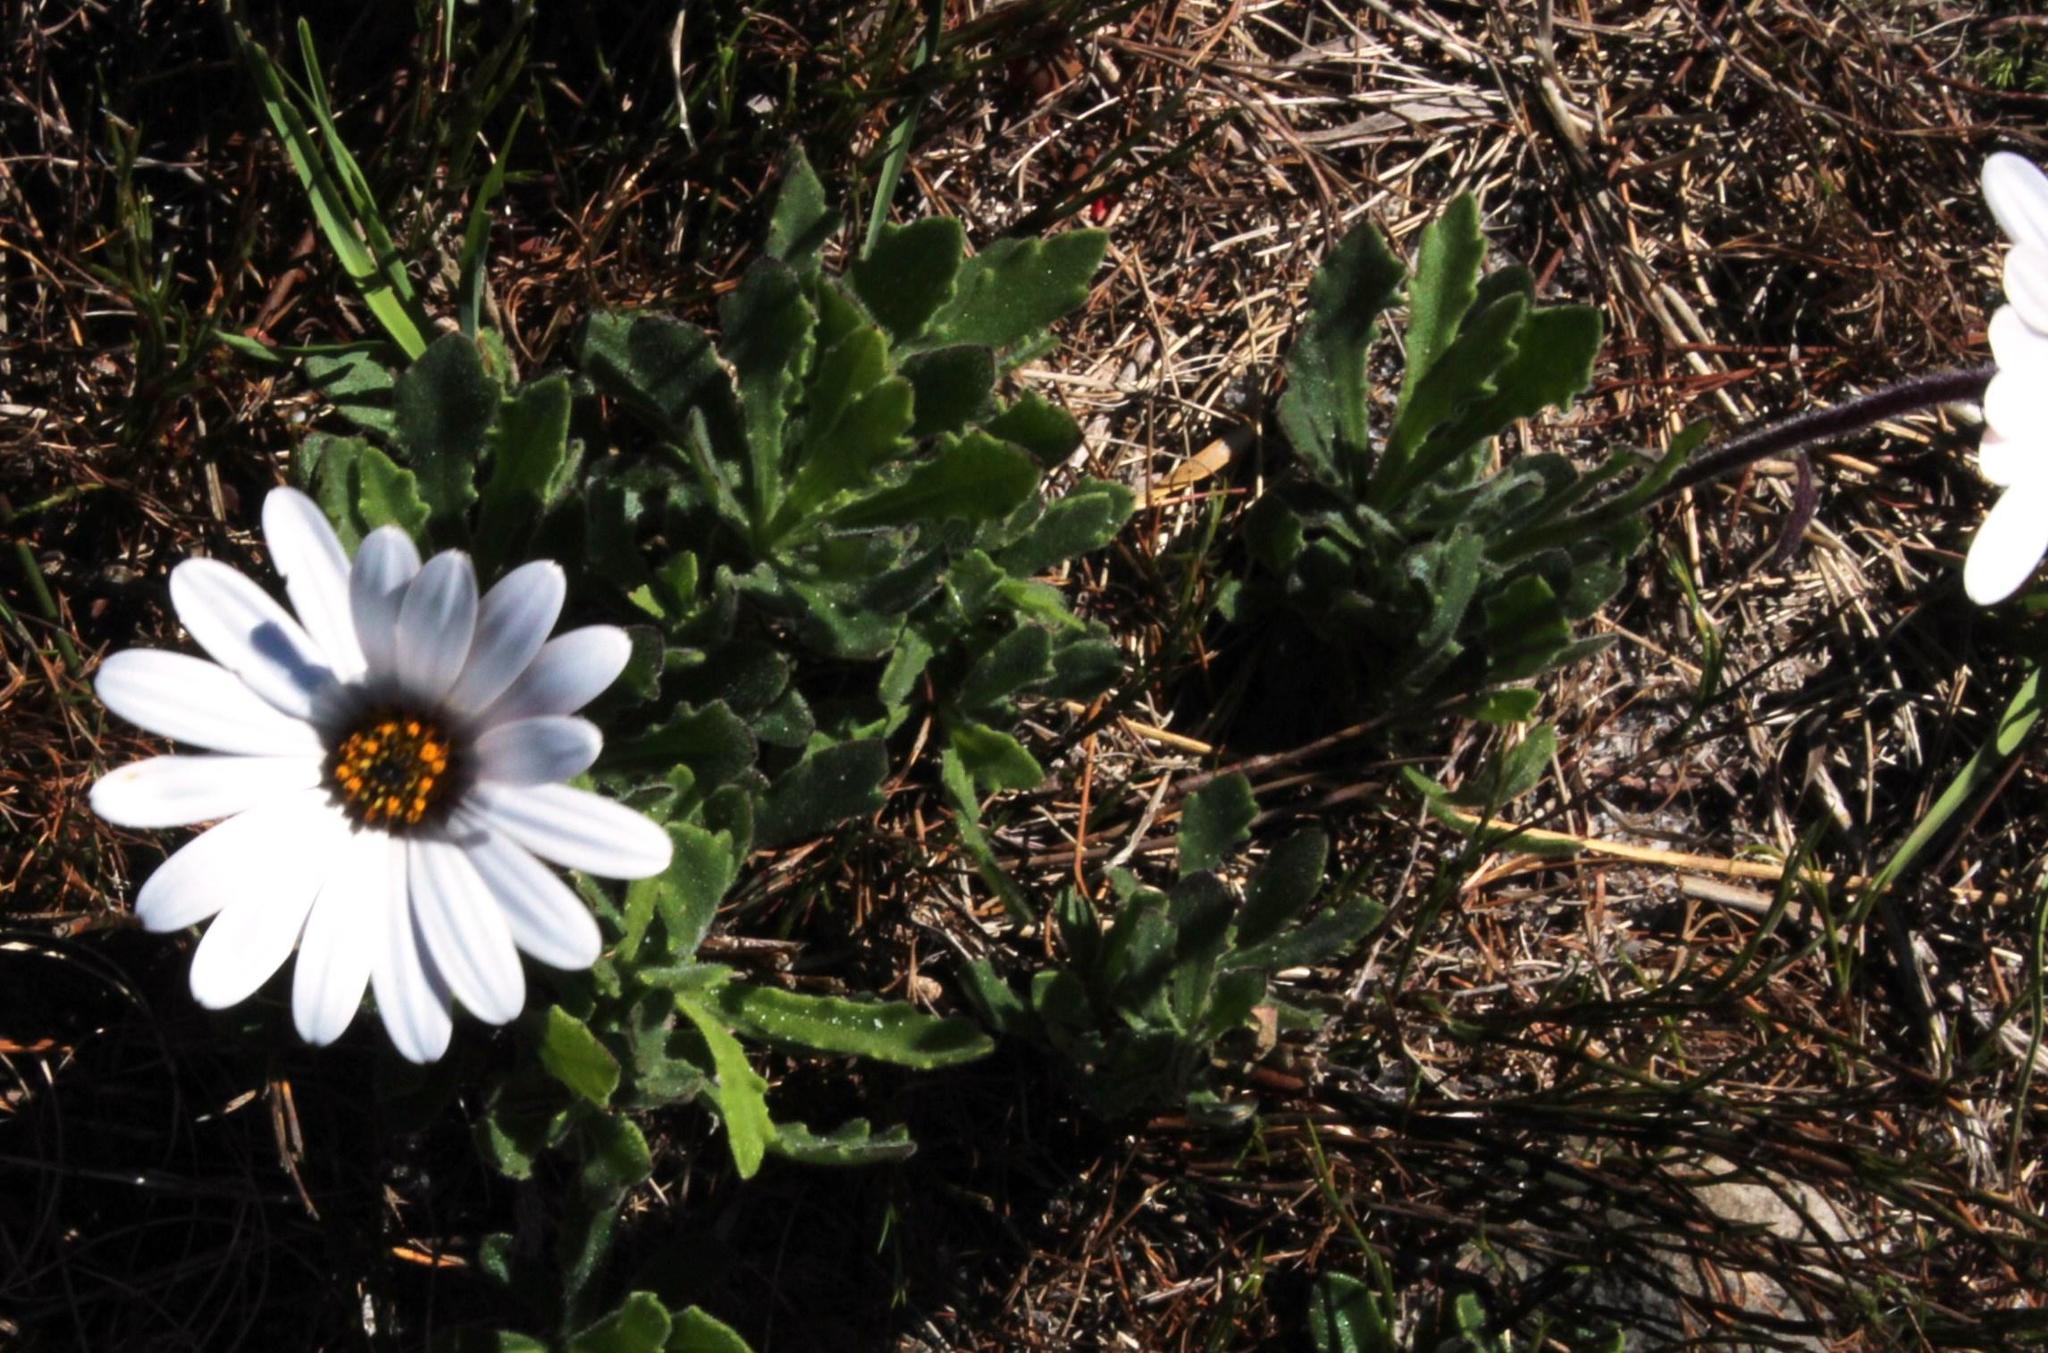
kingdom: Plantae
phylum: Tracheophyta
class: Magnoliopsida
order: Asterales
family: Asteraceae
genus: Dimorphotheca
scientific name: Dimorphotheca nudicaulis
